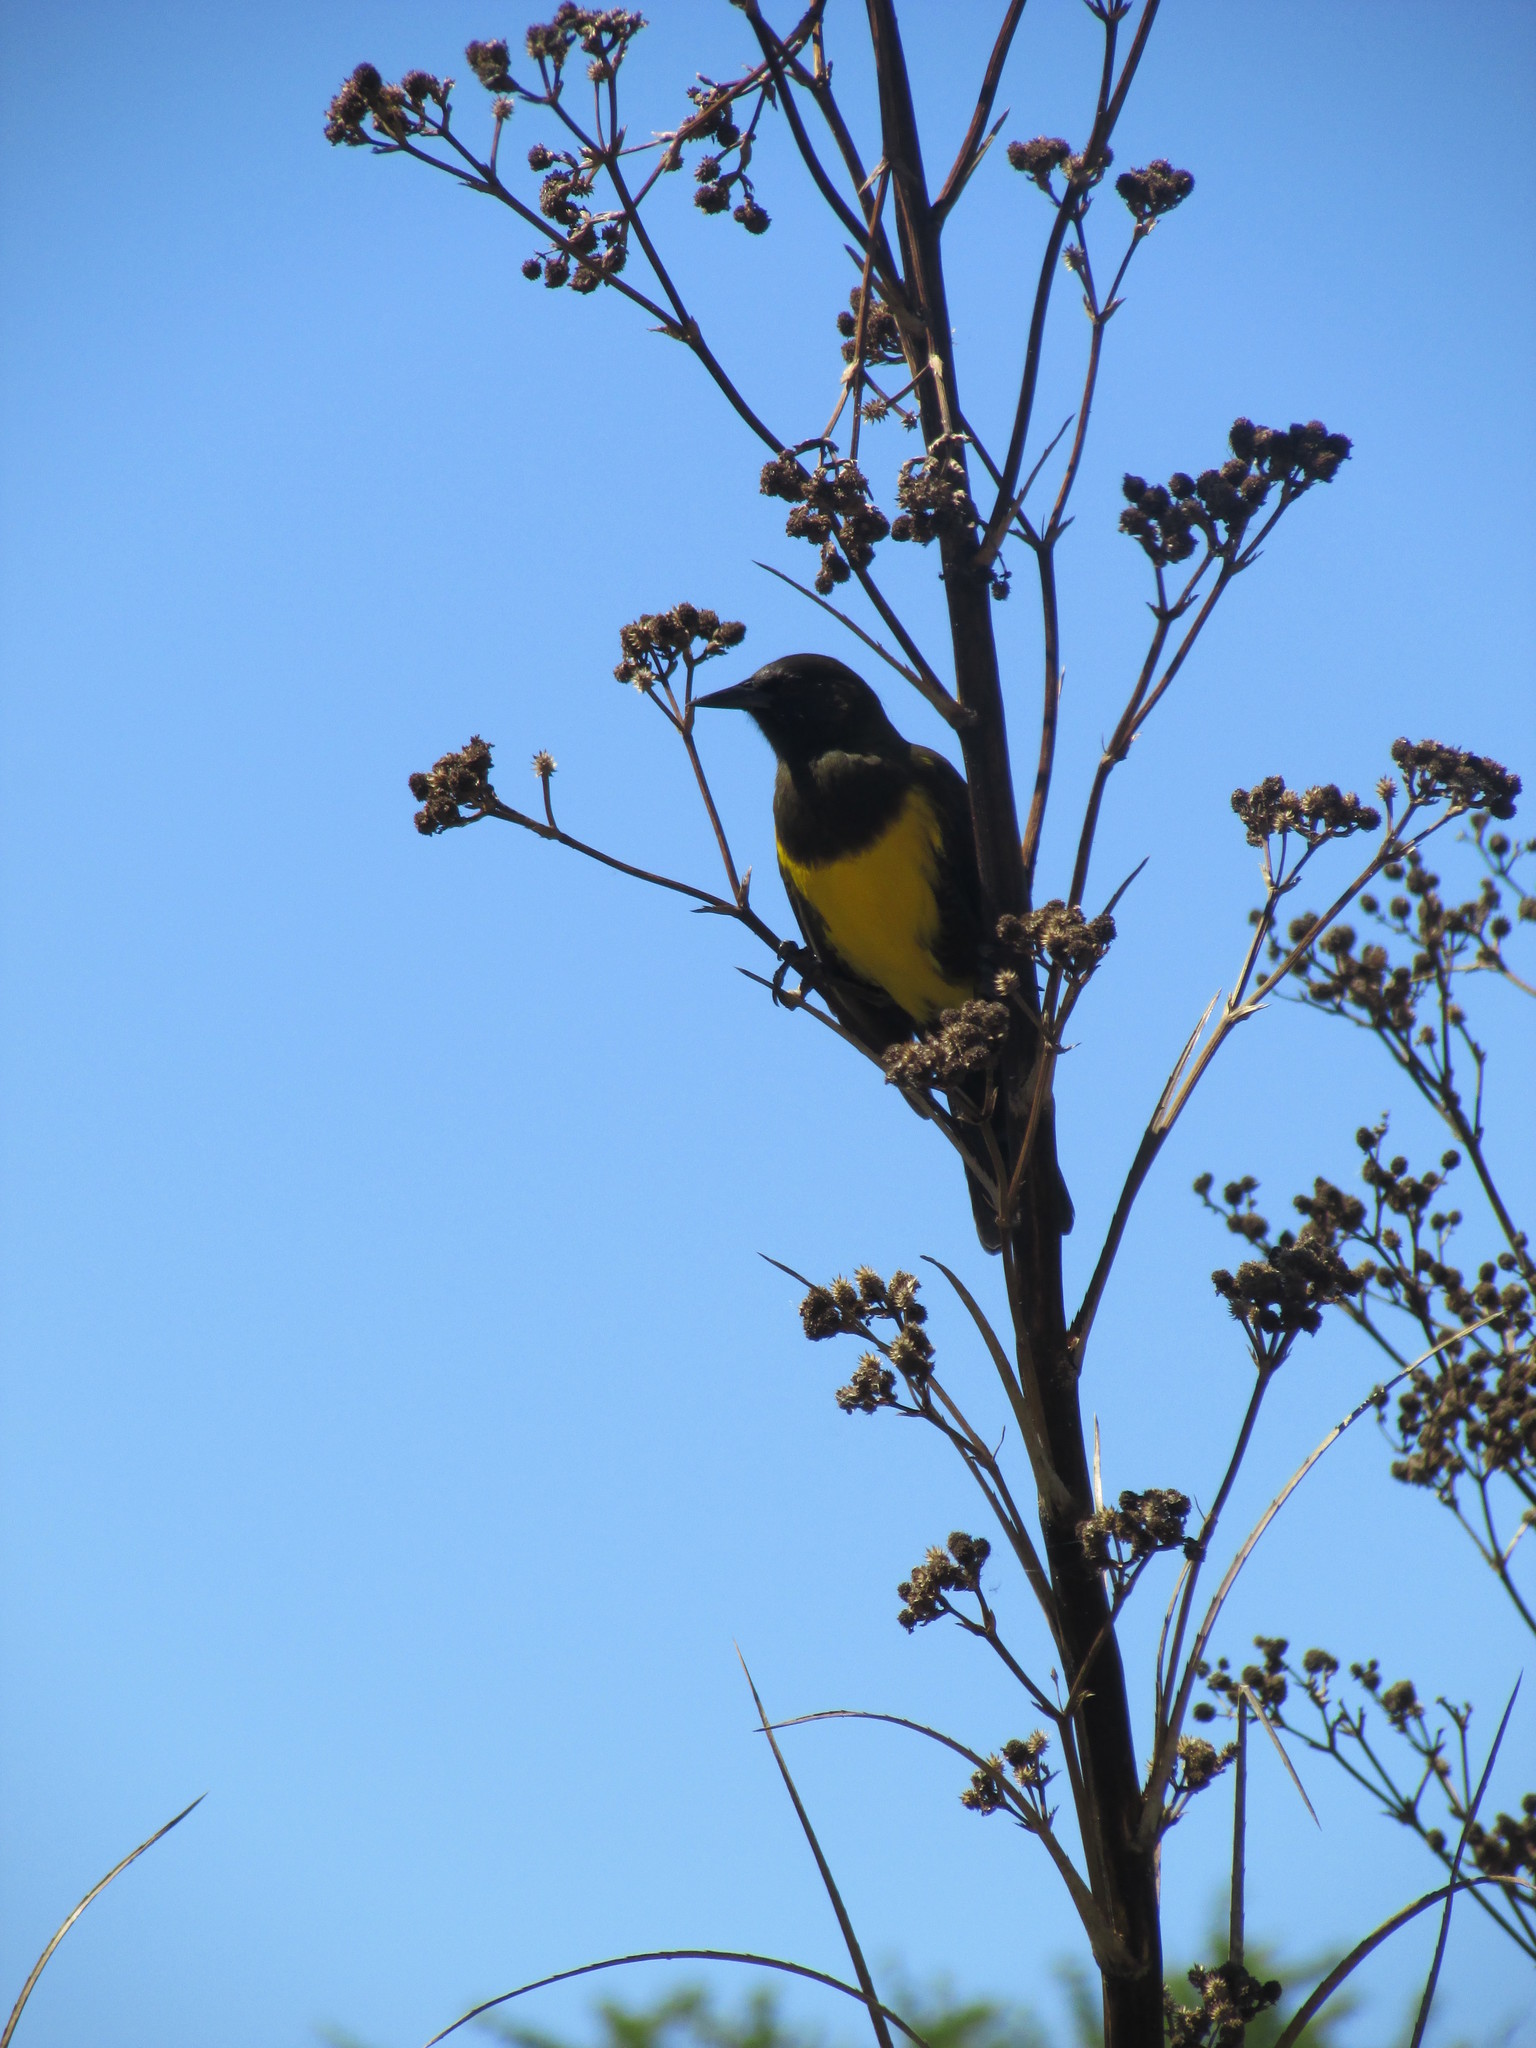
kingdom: Animalia
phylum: Chordata
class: Aves
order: Passeriformes
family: Icteridae
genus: Pseudoleistes
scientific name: Pseudoleistes virescens
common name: Brown-and-yellow marshbird
